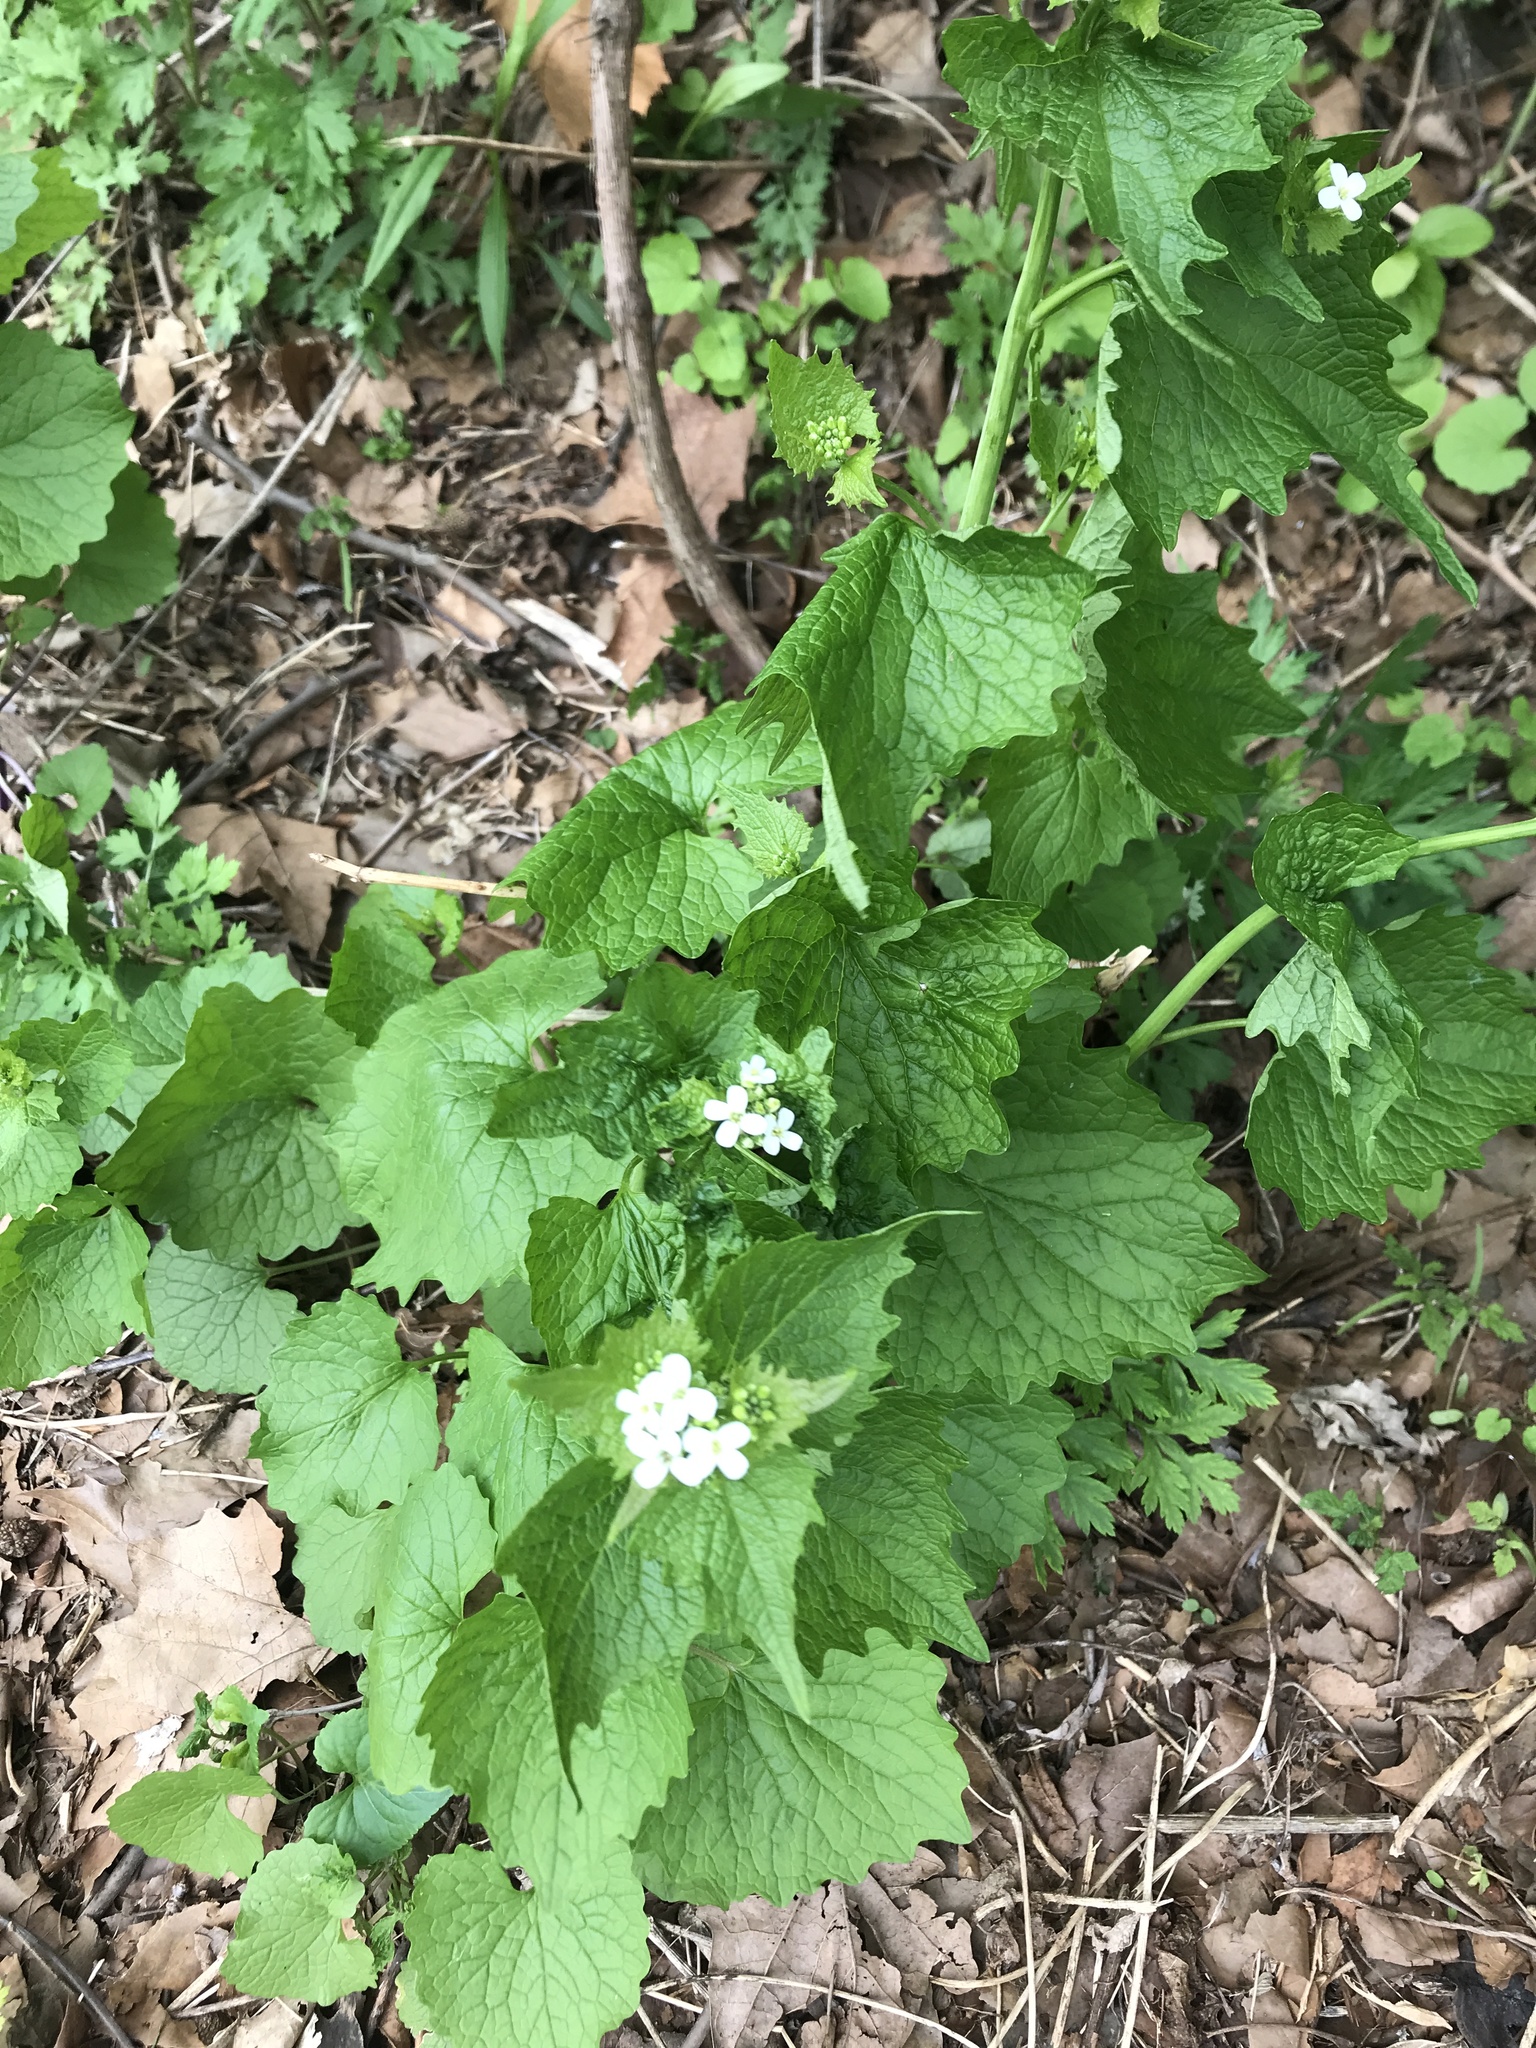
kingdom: Plantae
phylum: Tracheophyta
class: Magnoliopsida
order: Brassicales
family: Brassicaceae
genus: Alliaria
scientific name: Alliaria petiolata
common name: Garlic mustard
